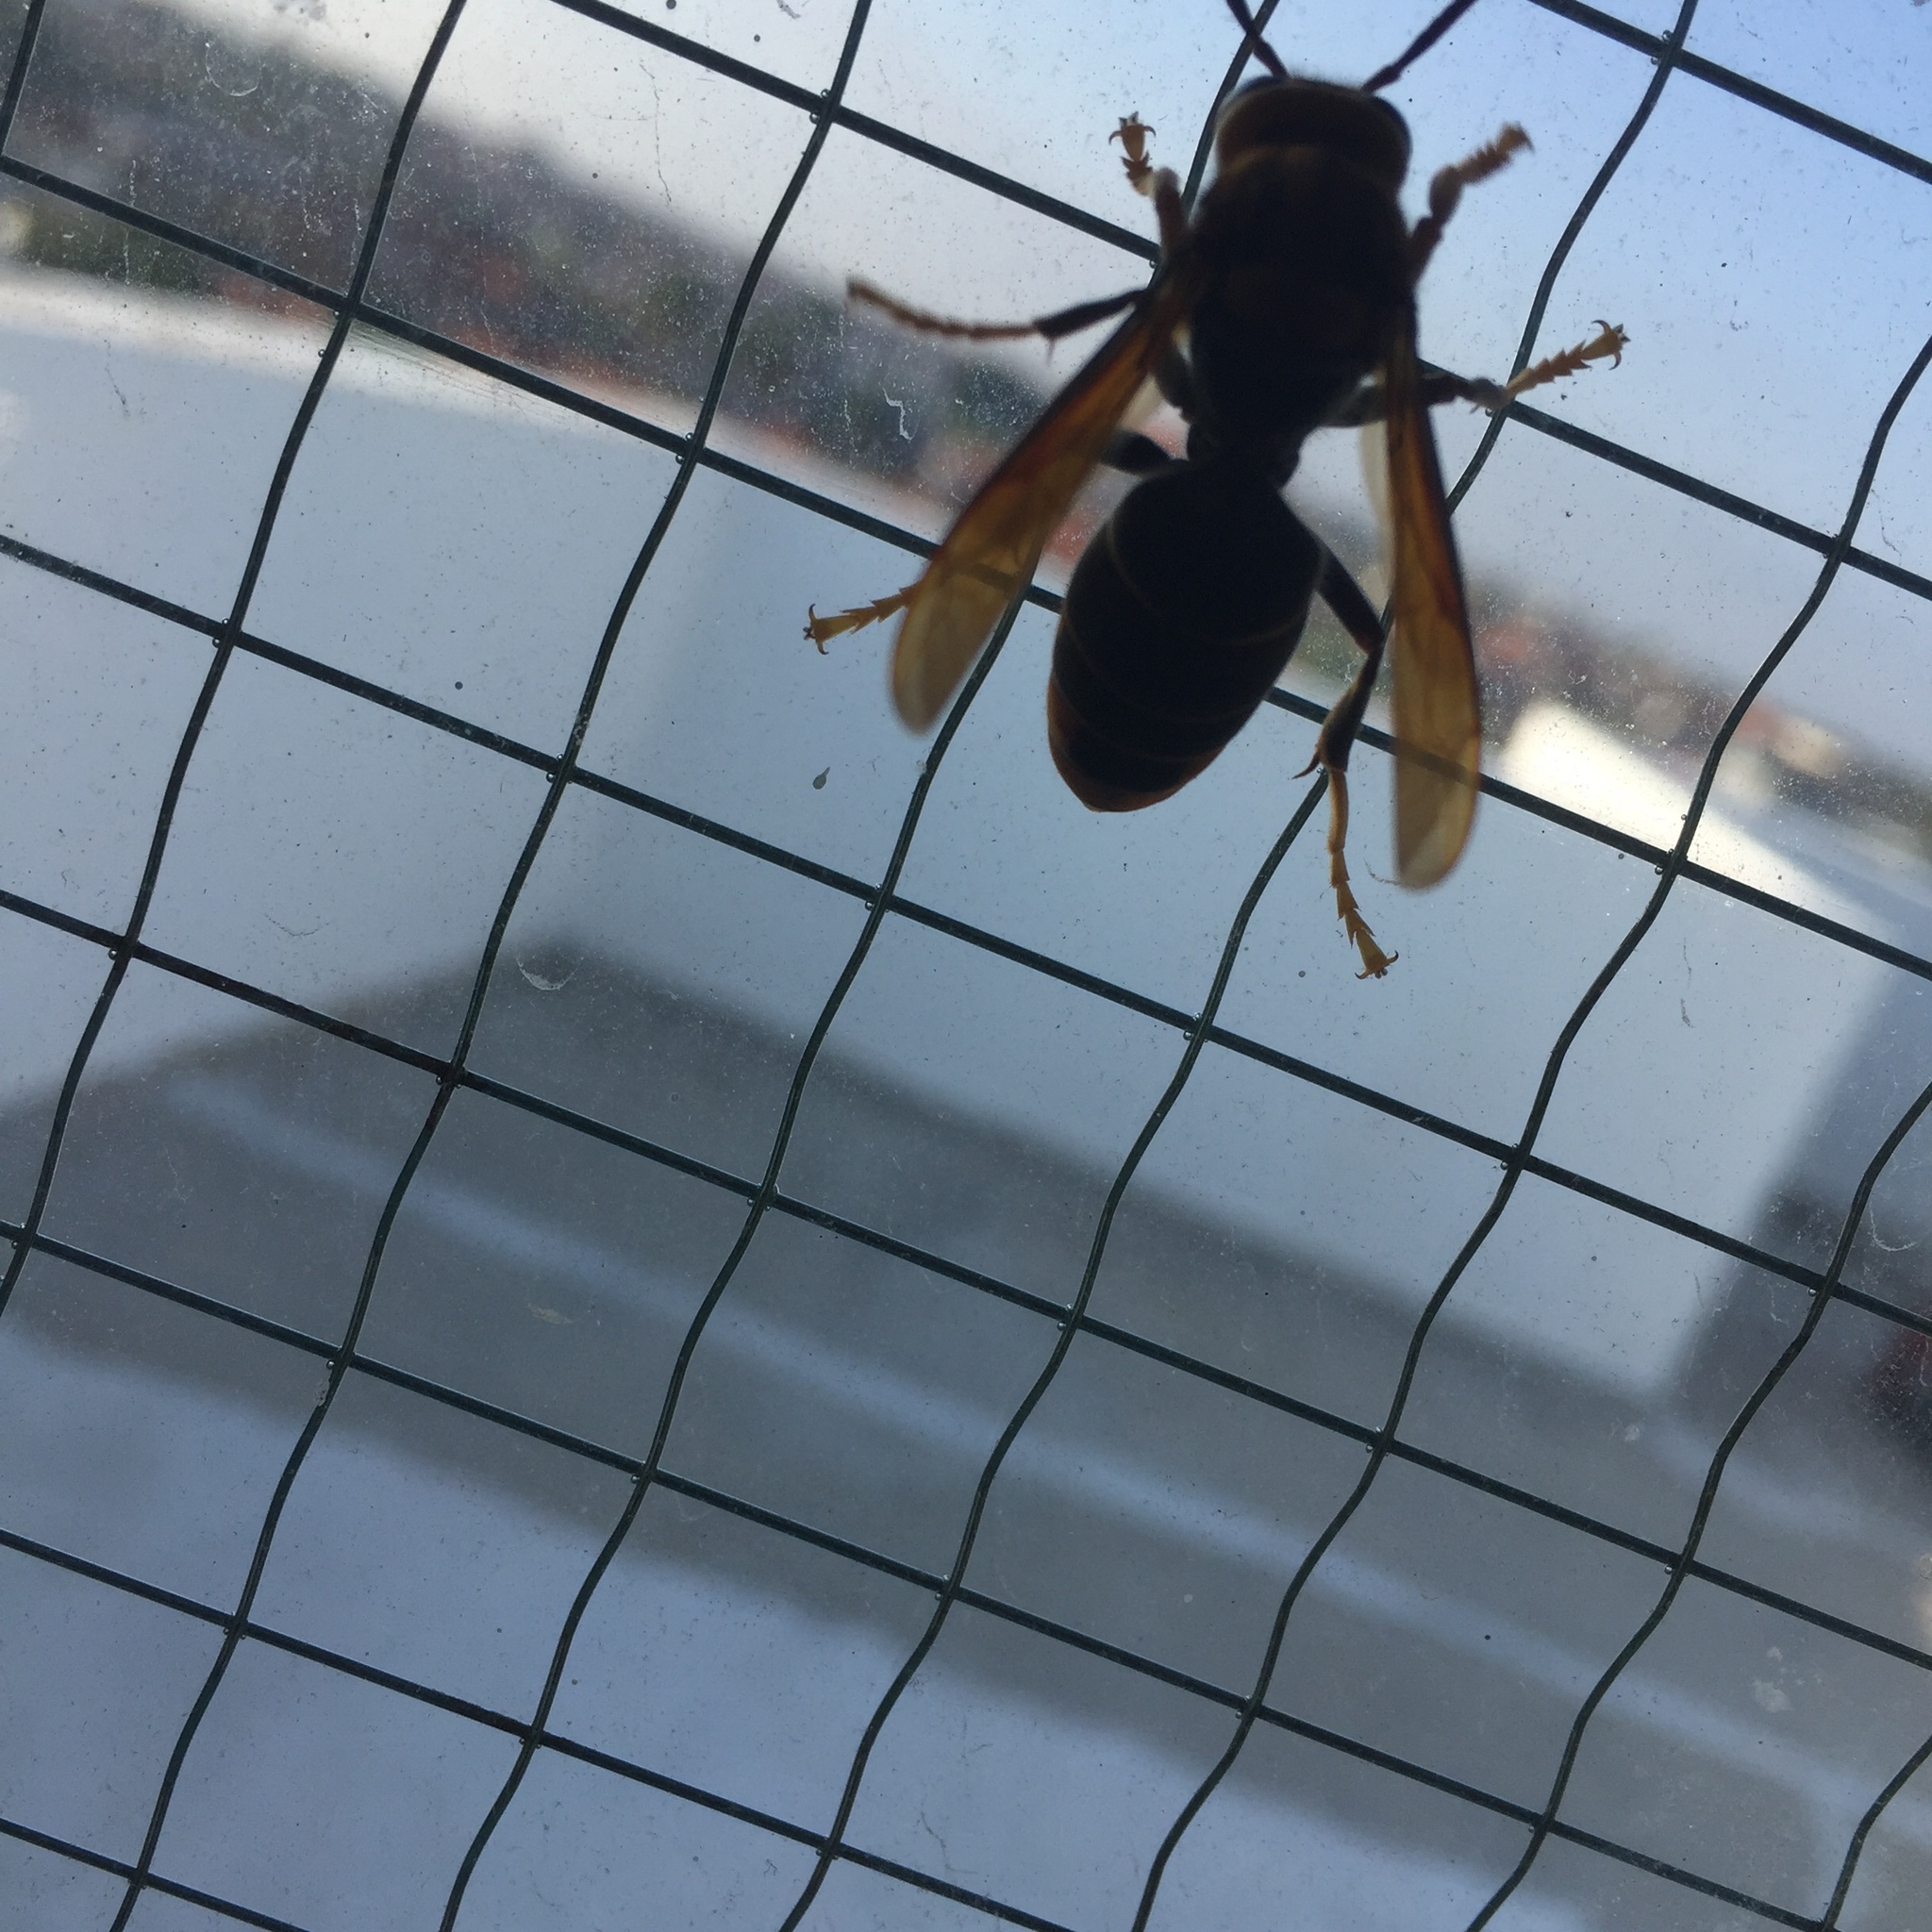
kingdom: Animalia
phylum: Arthropoda
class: Insecta
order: Hymenoptera
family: Vespidae
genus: Vespa
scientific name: Vespa velutina
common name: Asian hornet
